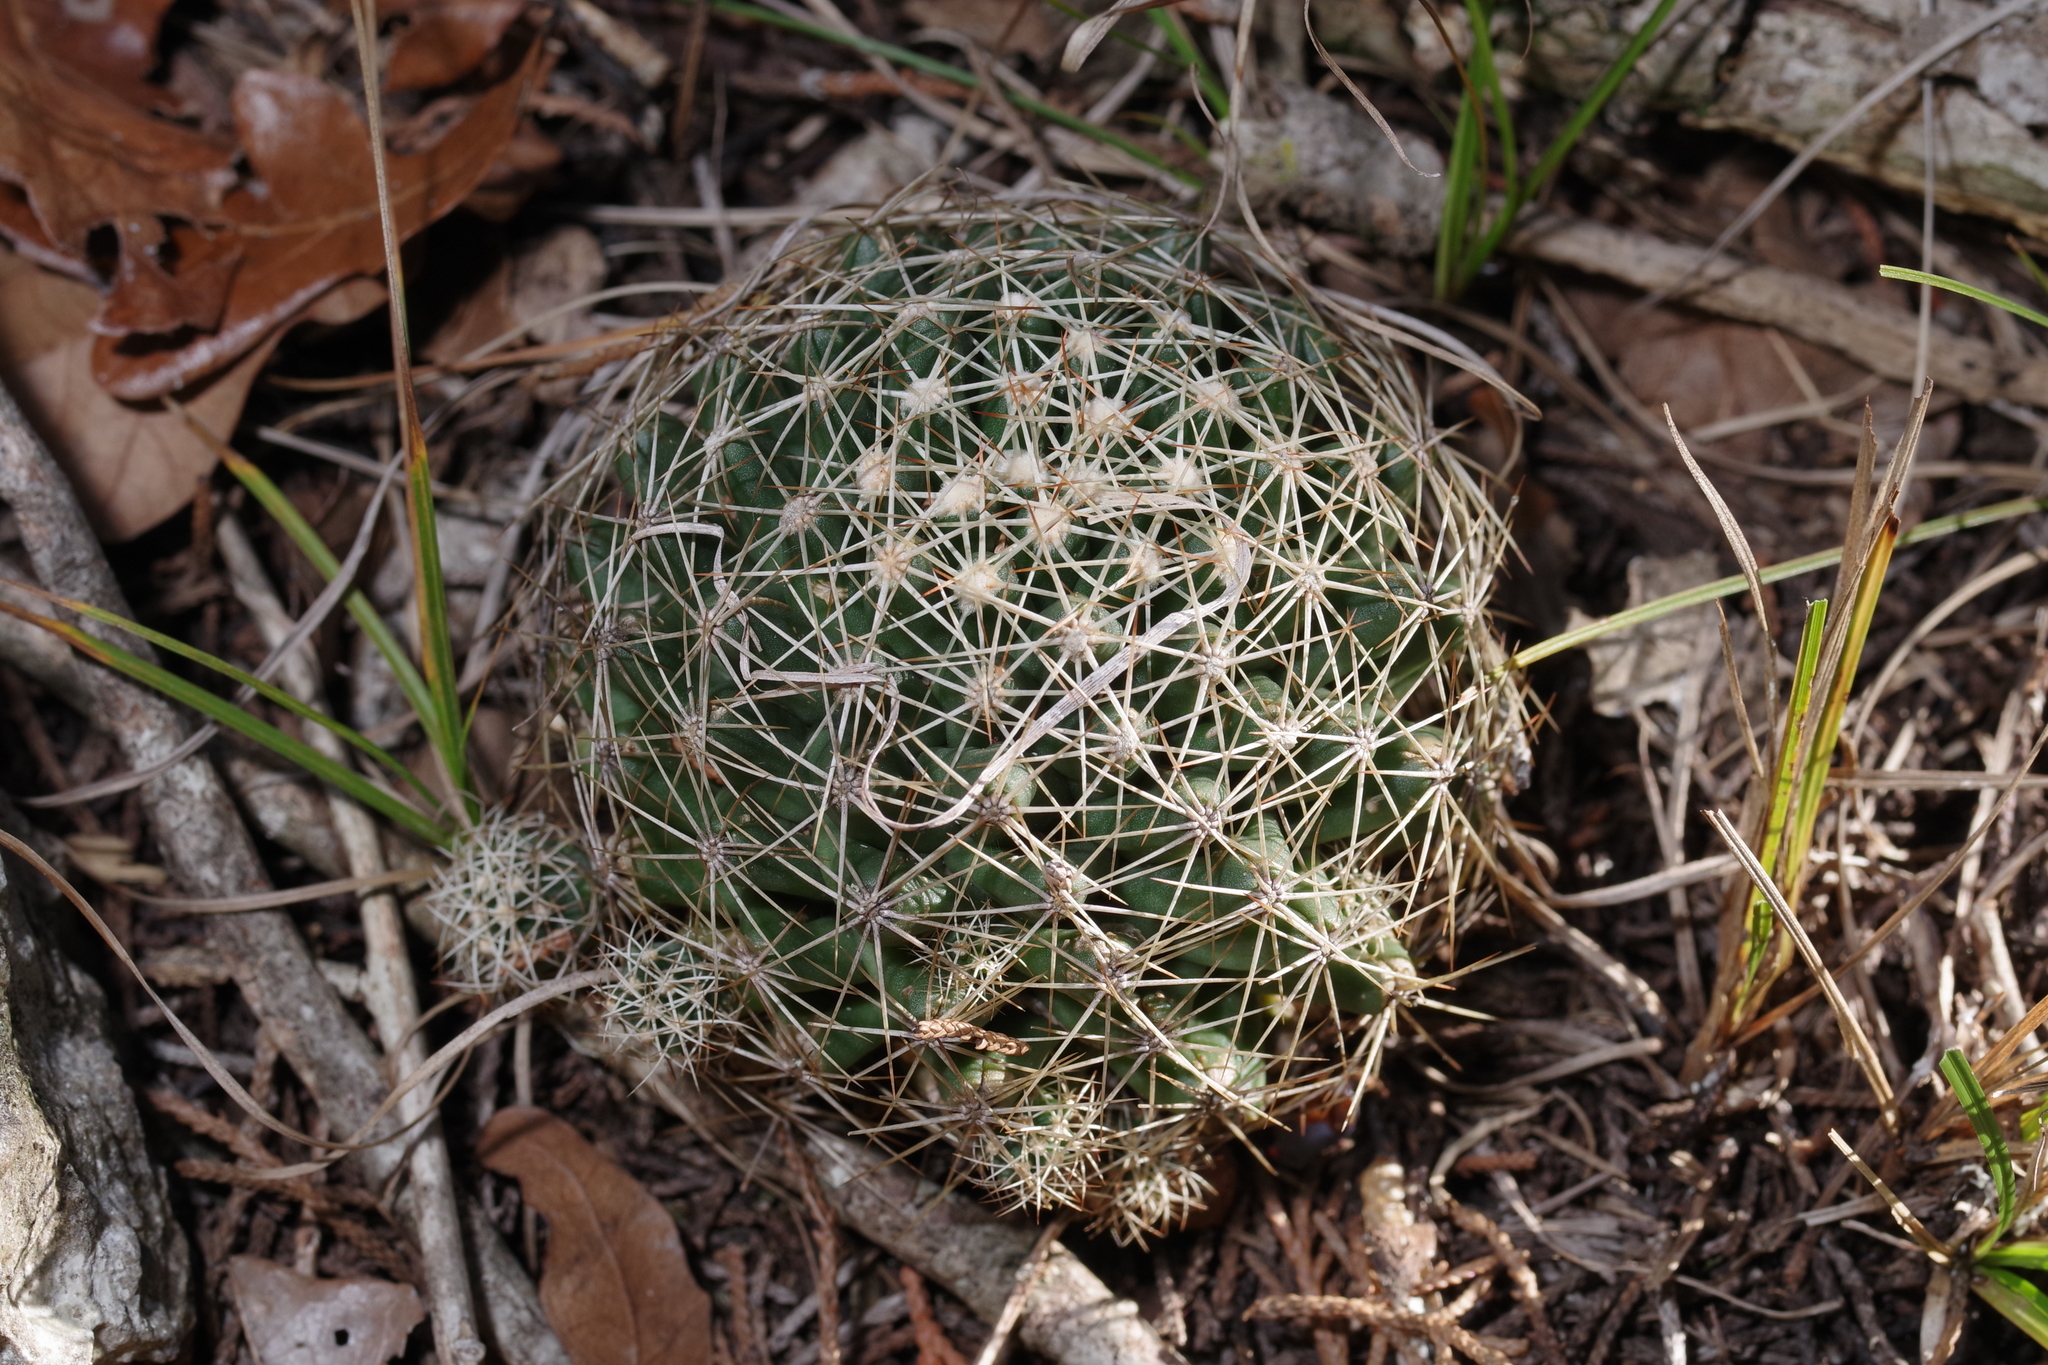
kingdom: Plantae
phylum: Tracheophyta
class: Magnoliopsida
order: Caryophyllales
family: Cactaceae
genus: Coryphantha
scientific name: Coryphantha sulcata
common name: Finger cactus
